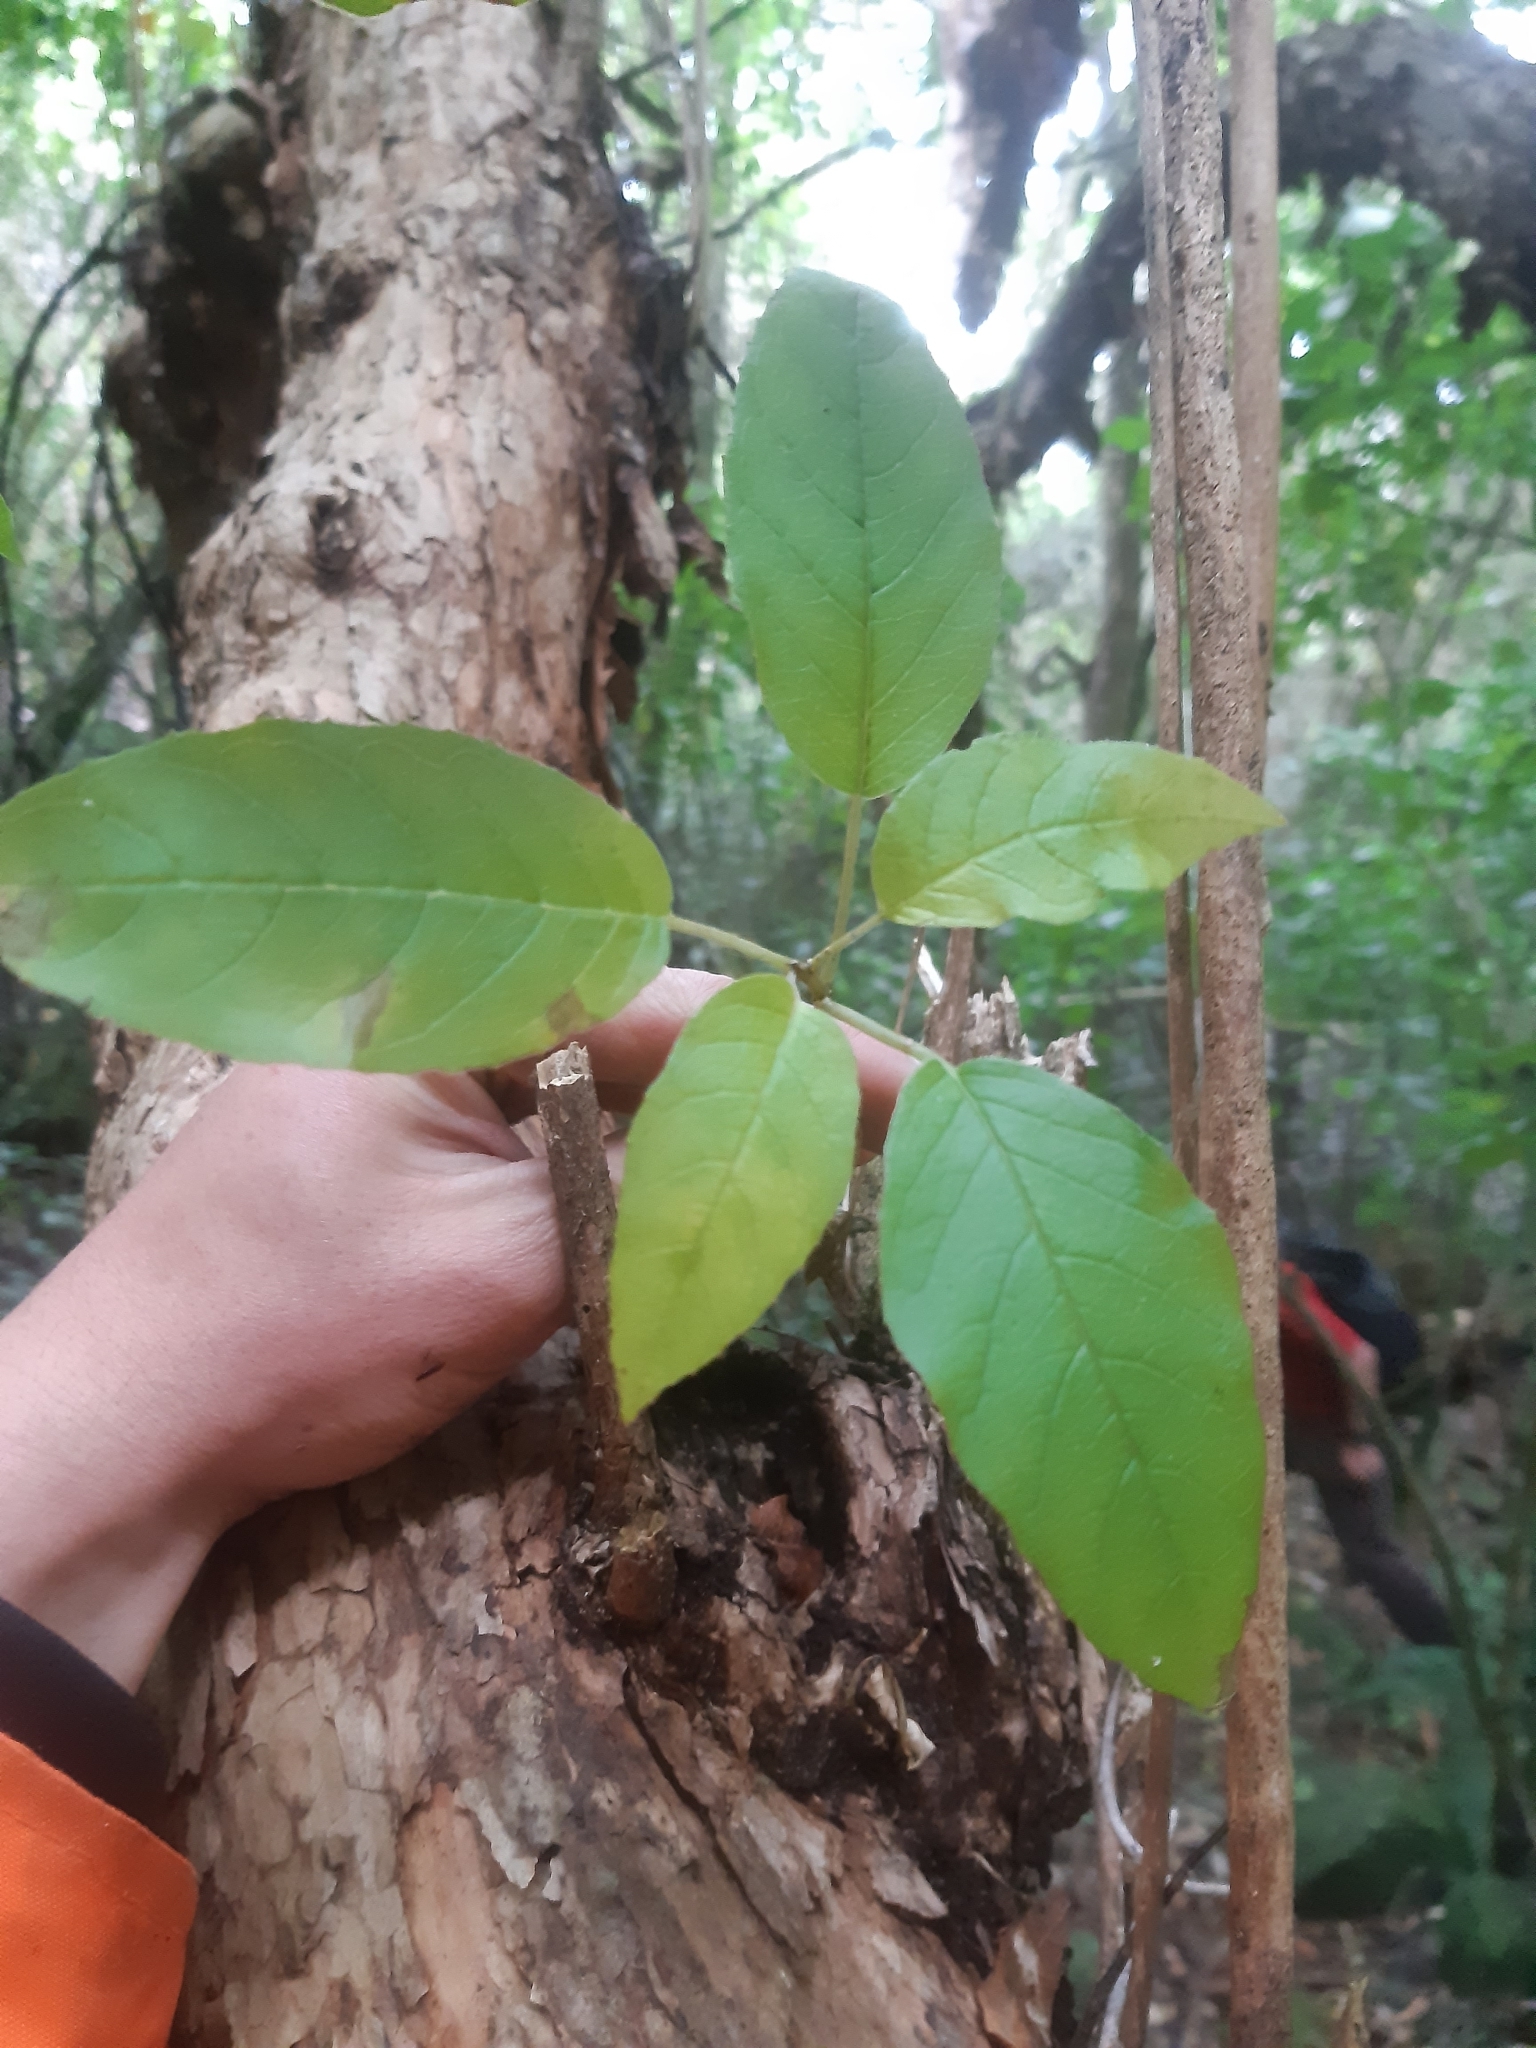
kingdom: Plantae
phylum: Tracheophyta
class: Magnoliopsida
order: Myrtales
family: Onagraceae
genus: Fuchsia
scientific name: Fuchsia excorticata
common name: Tree fuchsia
